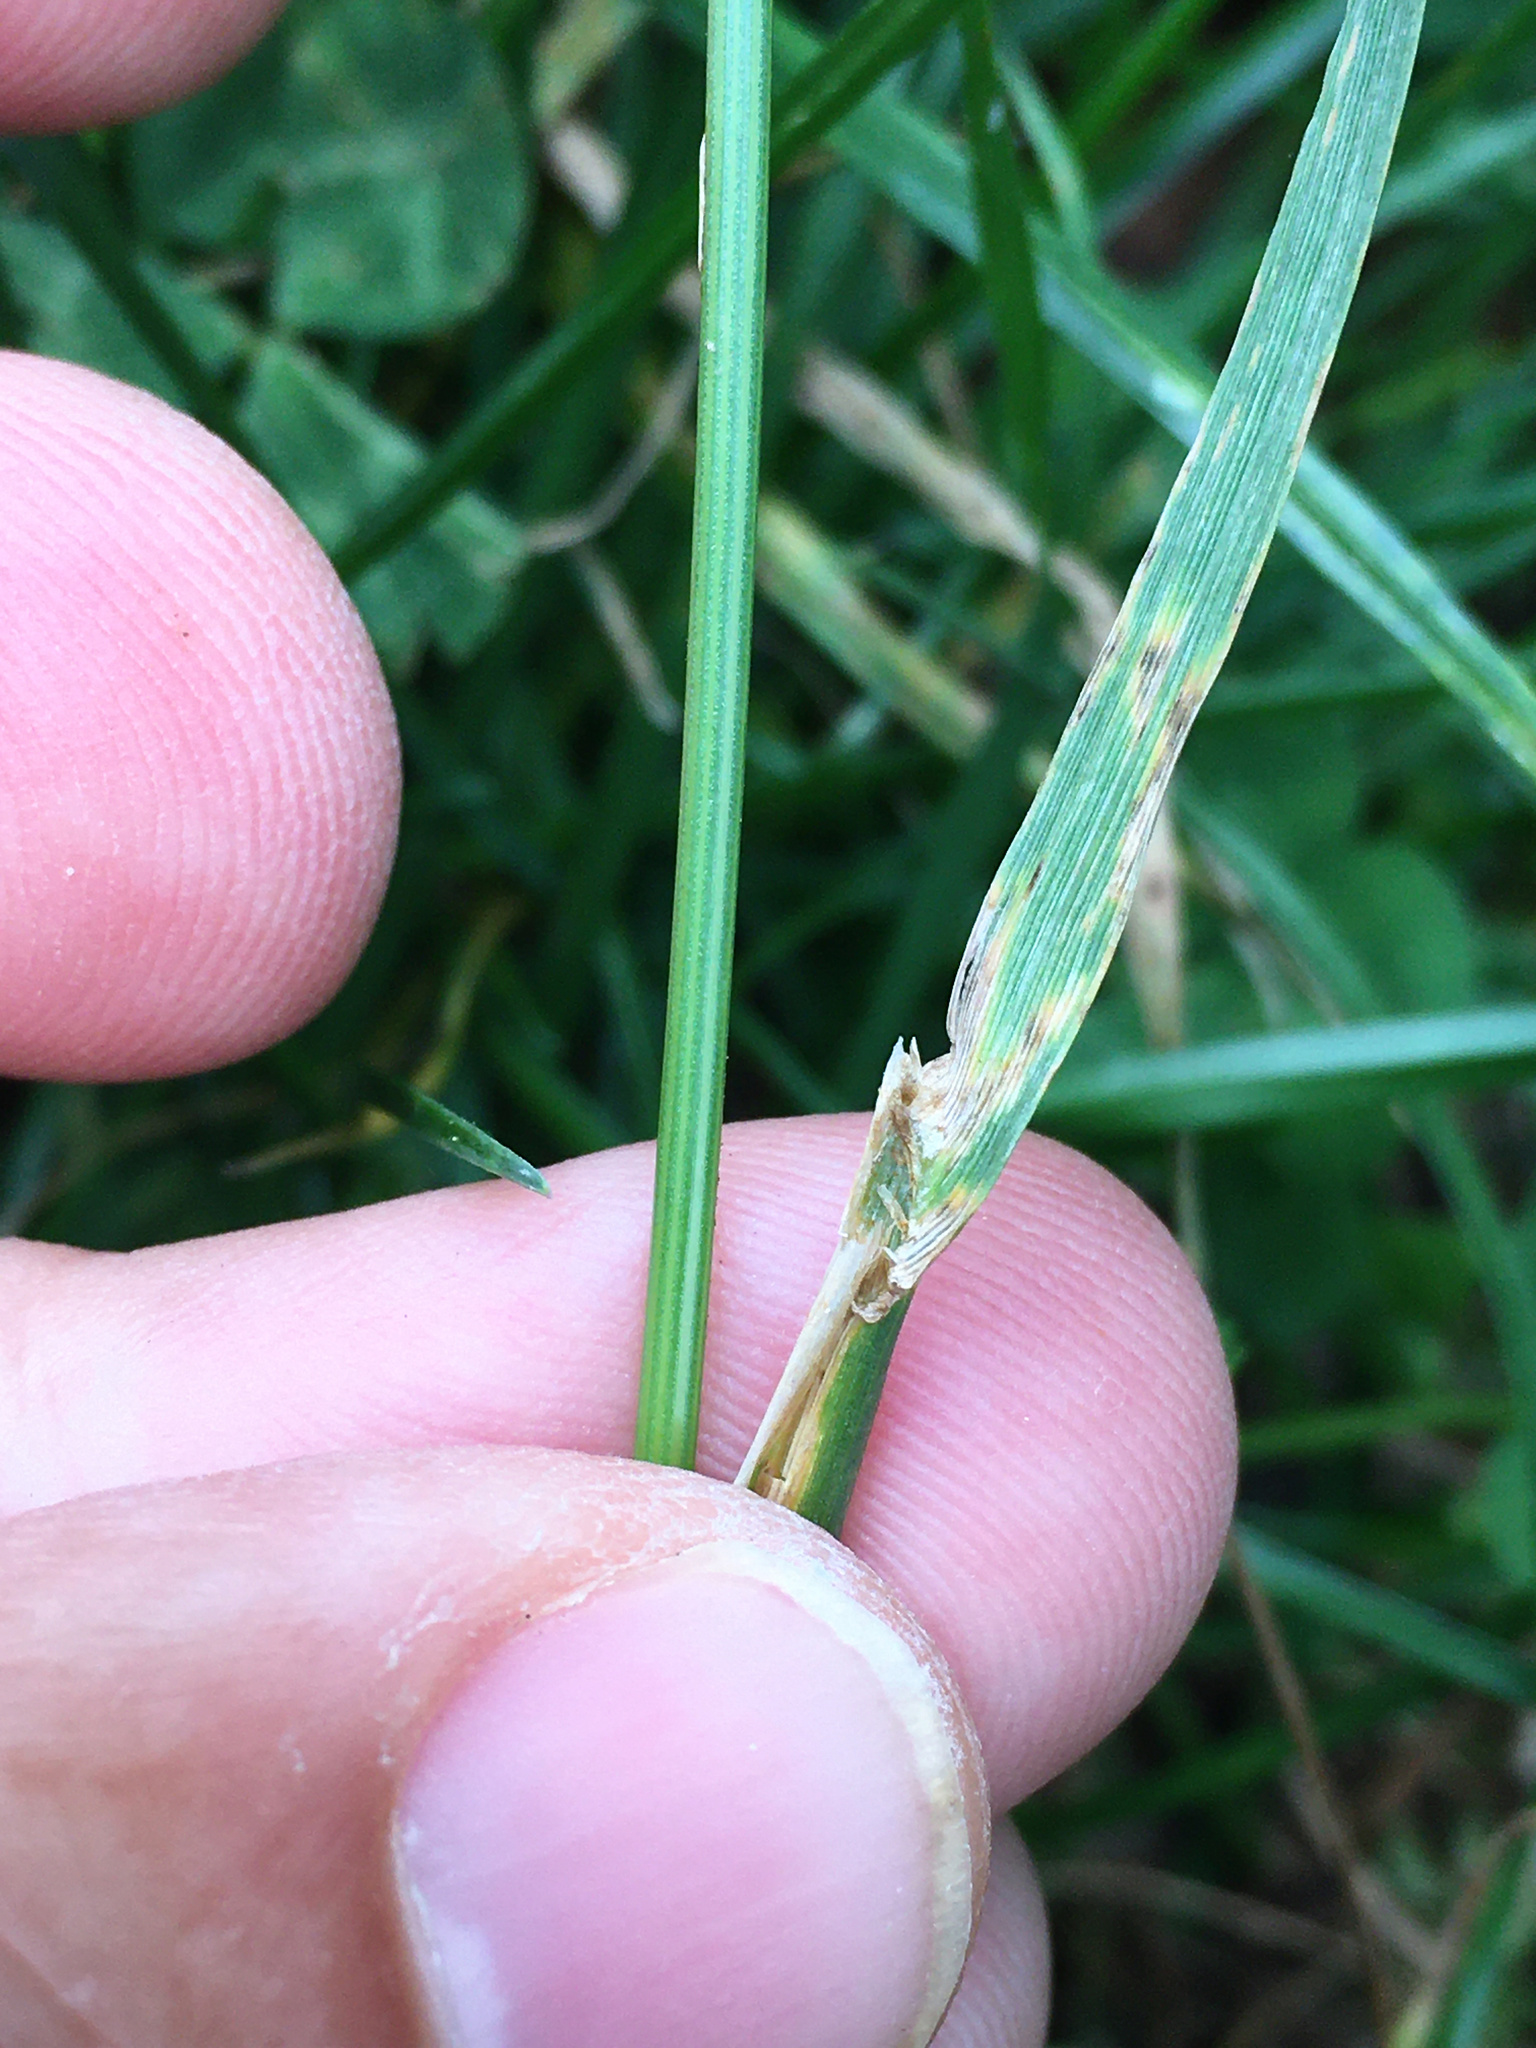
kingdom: Plantae
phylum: Tracheophyta
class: Liliopsida
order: Poales
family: Poaceae
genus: Lolium
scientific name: Lolium perenne
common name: Perennial ryegrass
